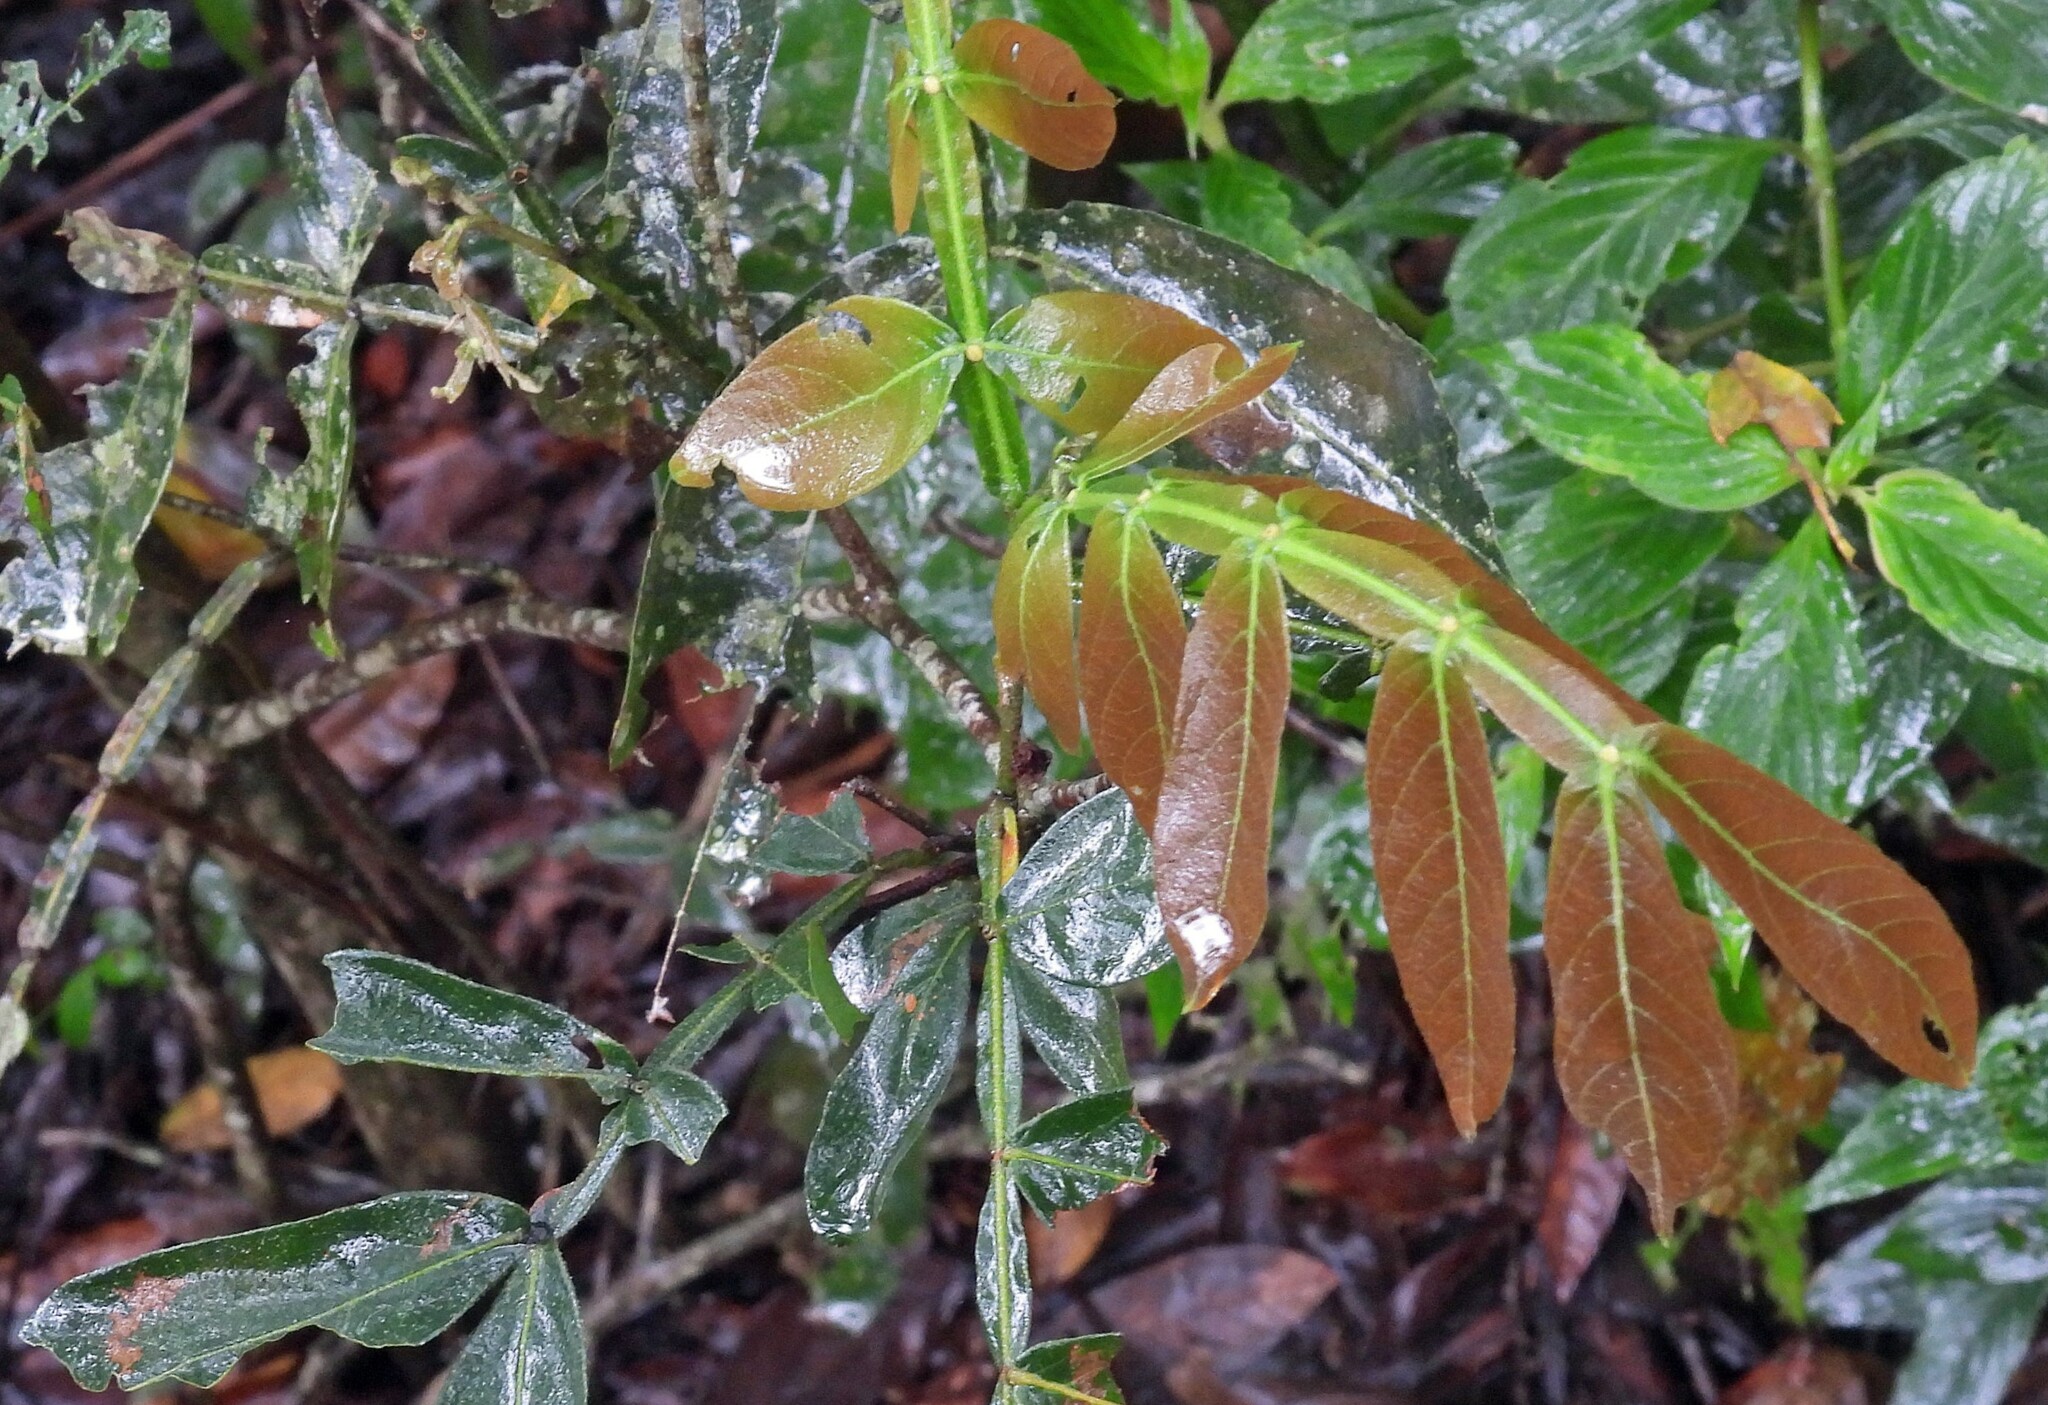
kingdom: Plantae
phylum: Tracheophyta
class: Magnoliopsida
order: Fabales
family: Fabaceae
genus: Inga
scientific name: Inga uraguensis
